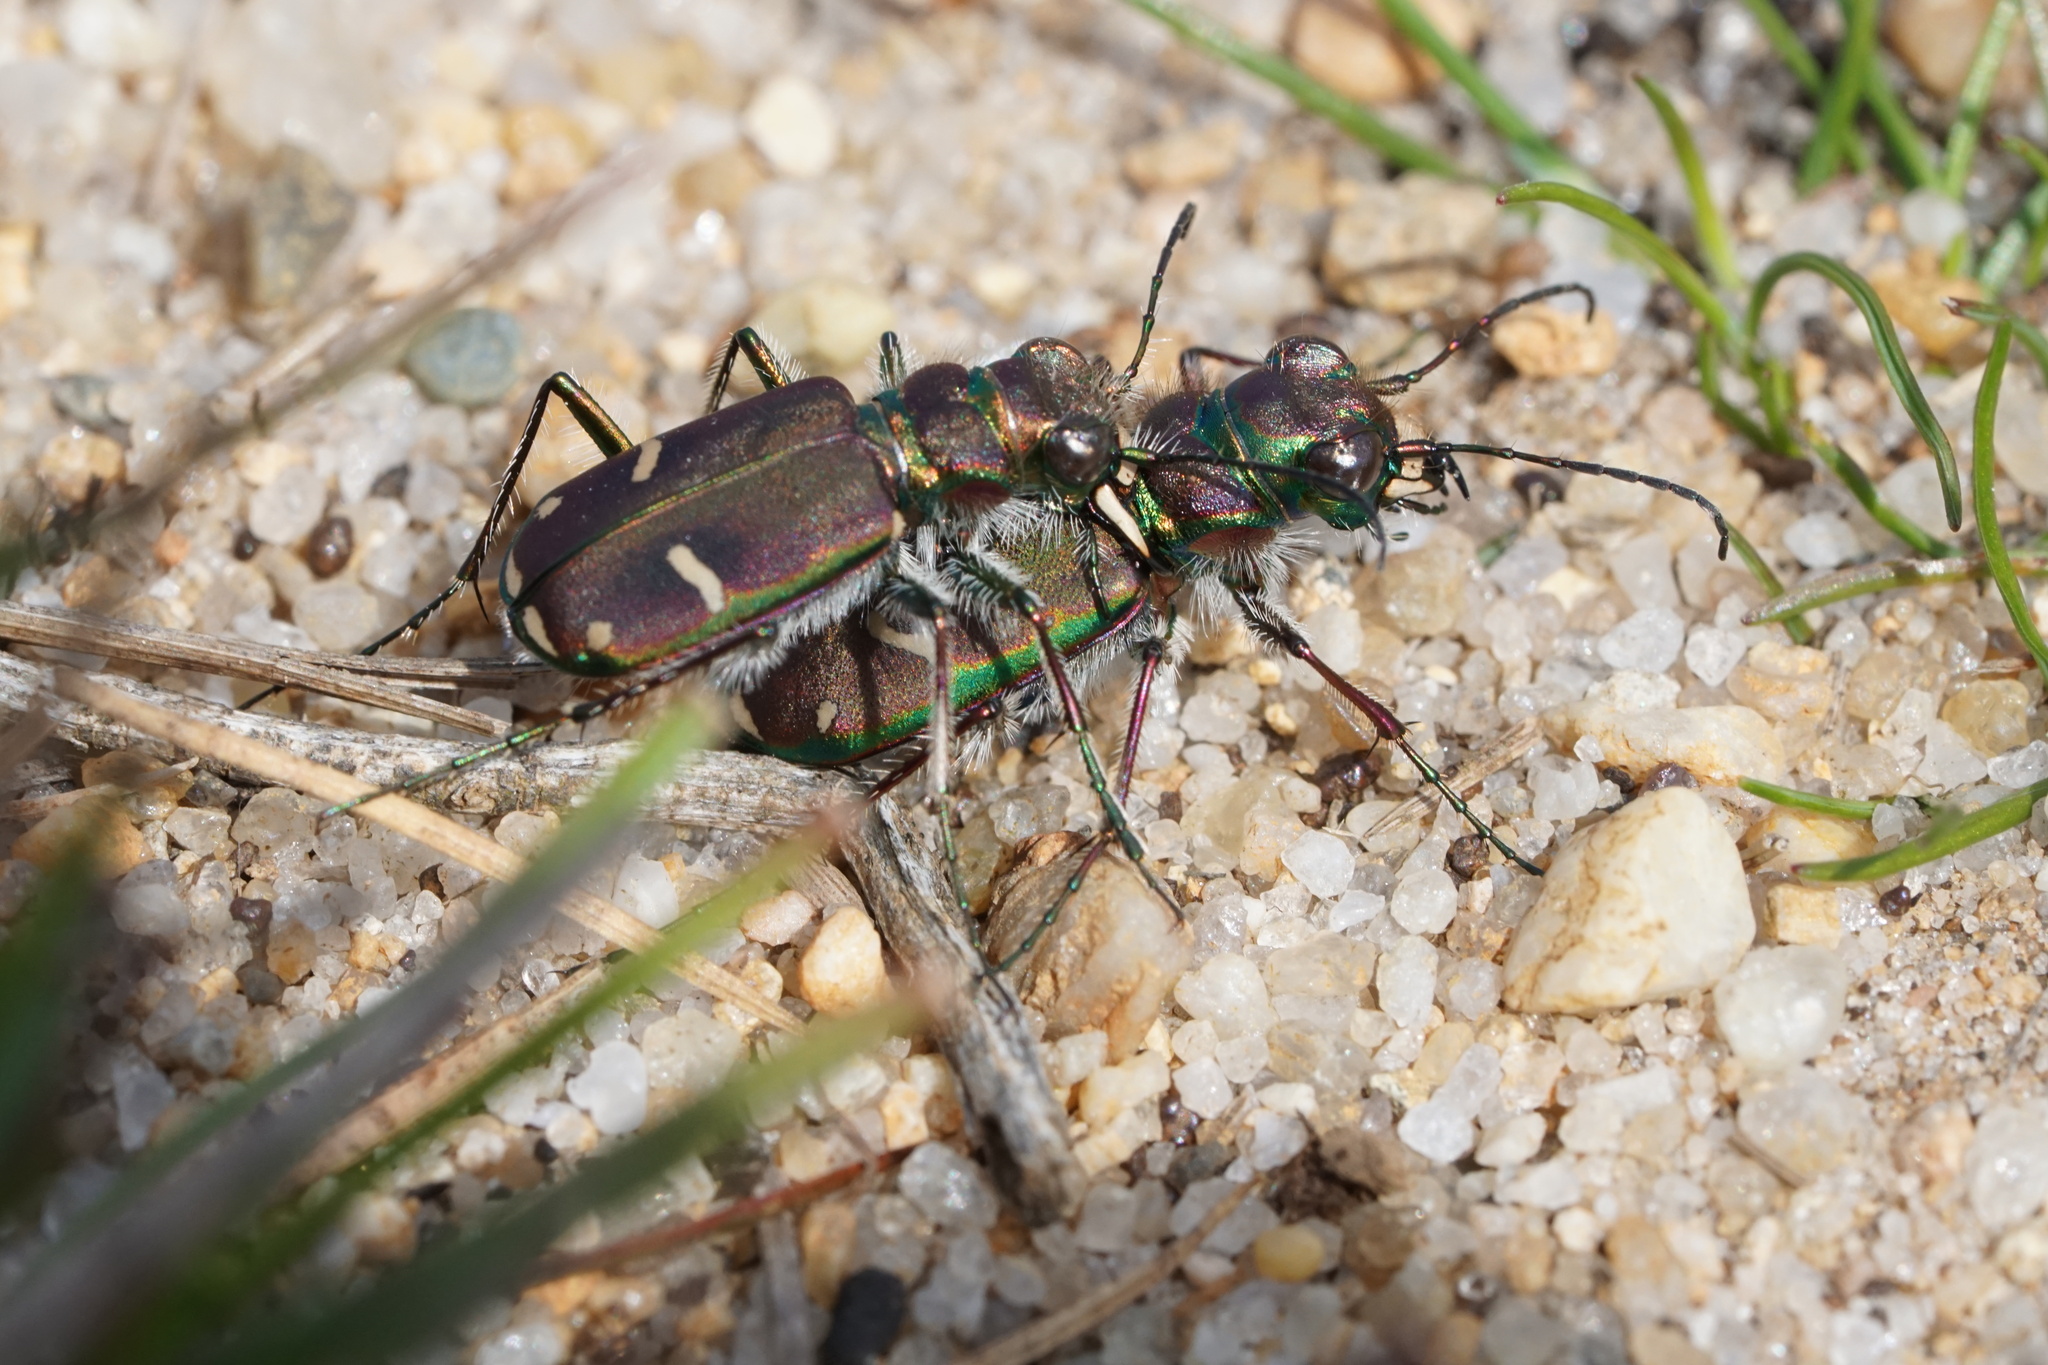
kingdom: Animalia
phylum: Arthropoda
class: Insecta
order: Coleoptera
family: Carabidae
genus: Cicindela
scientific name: Cicindela purpurea
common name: Cow path tiger beetle
